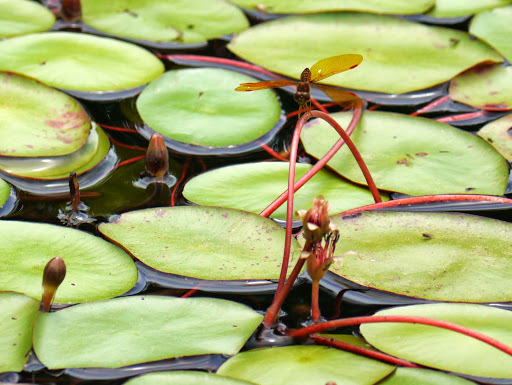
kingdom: Animalia
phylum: Arthropoda
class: Insecta
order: Odonata
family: Libellulidae
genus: Perithemis
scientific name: Perithemis tenera
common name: Eastern amberwing
